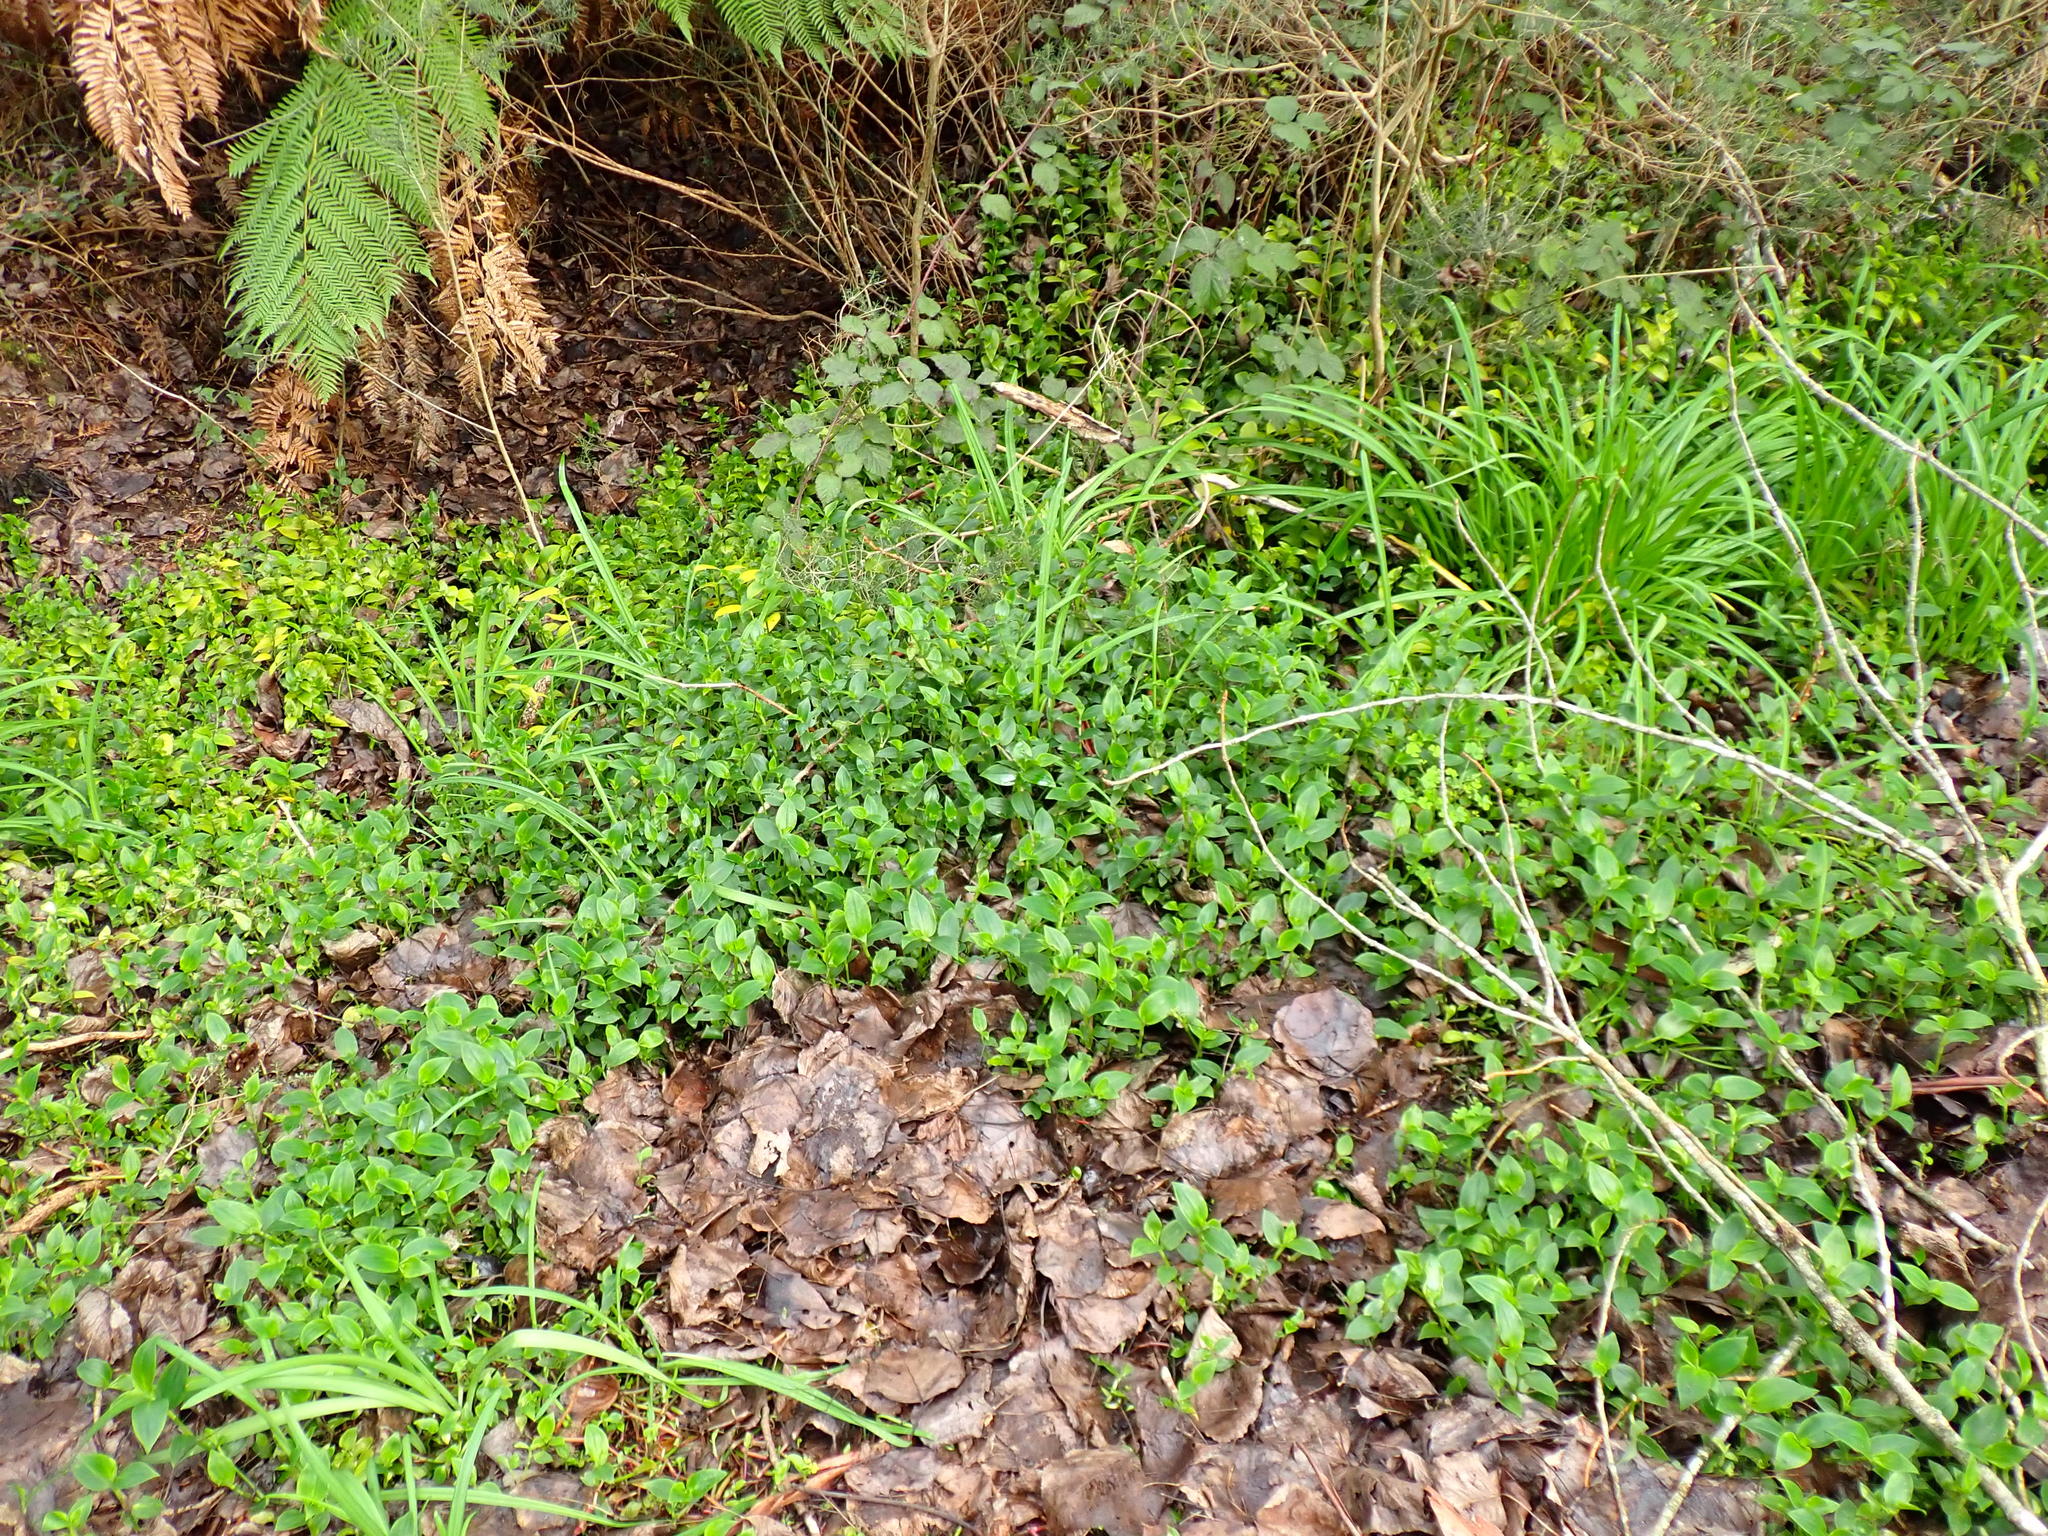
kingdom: Plantae
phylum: Tracheophyta
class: Liliopsida
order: Commelinales
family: Commelinaceae
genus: Tradescantia
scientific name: Tradescantia fluminensis
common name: Wandering-jew
